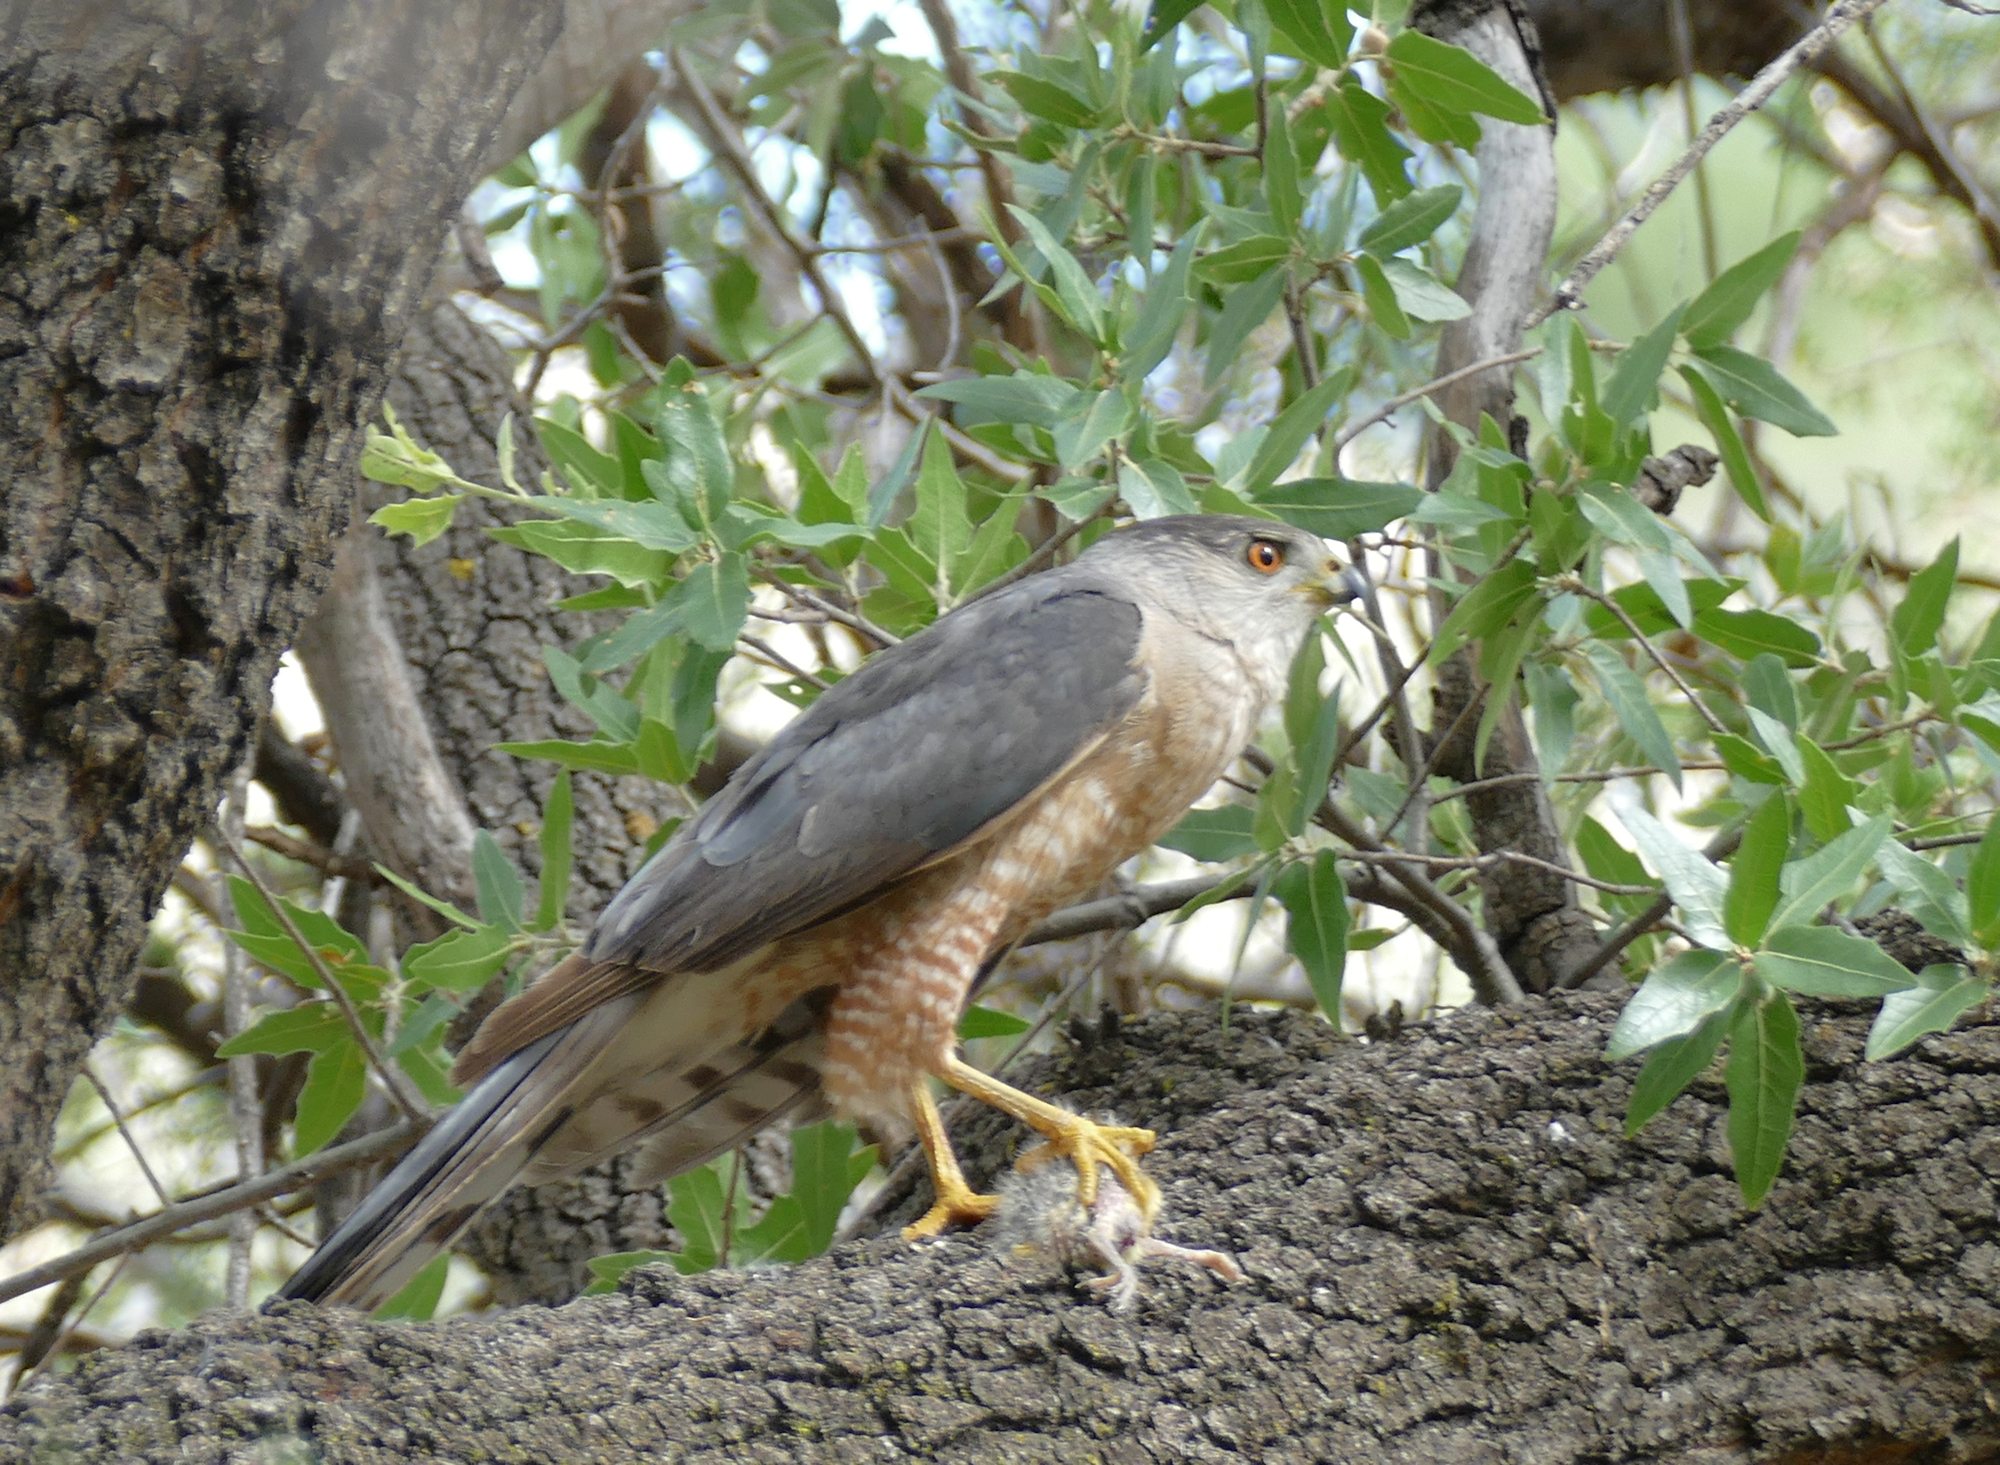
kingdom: Animalia
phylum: Chordata
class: Aves
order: Accipitriformes
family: Accipitridae
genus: Accipiter
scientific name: Accipiter cooperii
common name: Cooper's hawk
